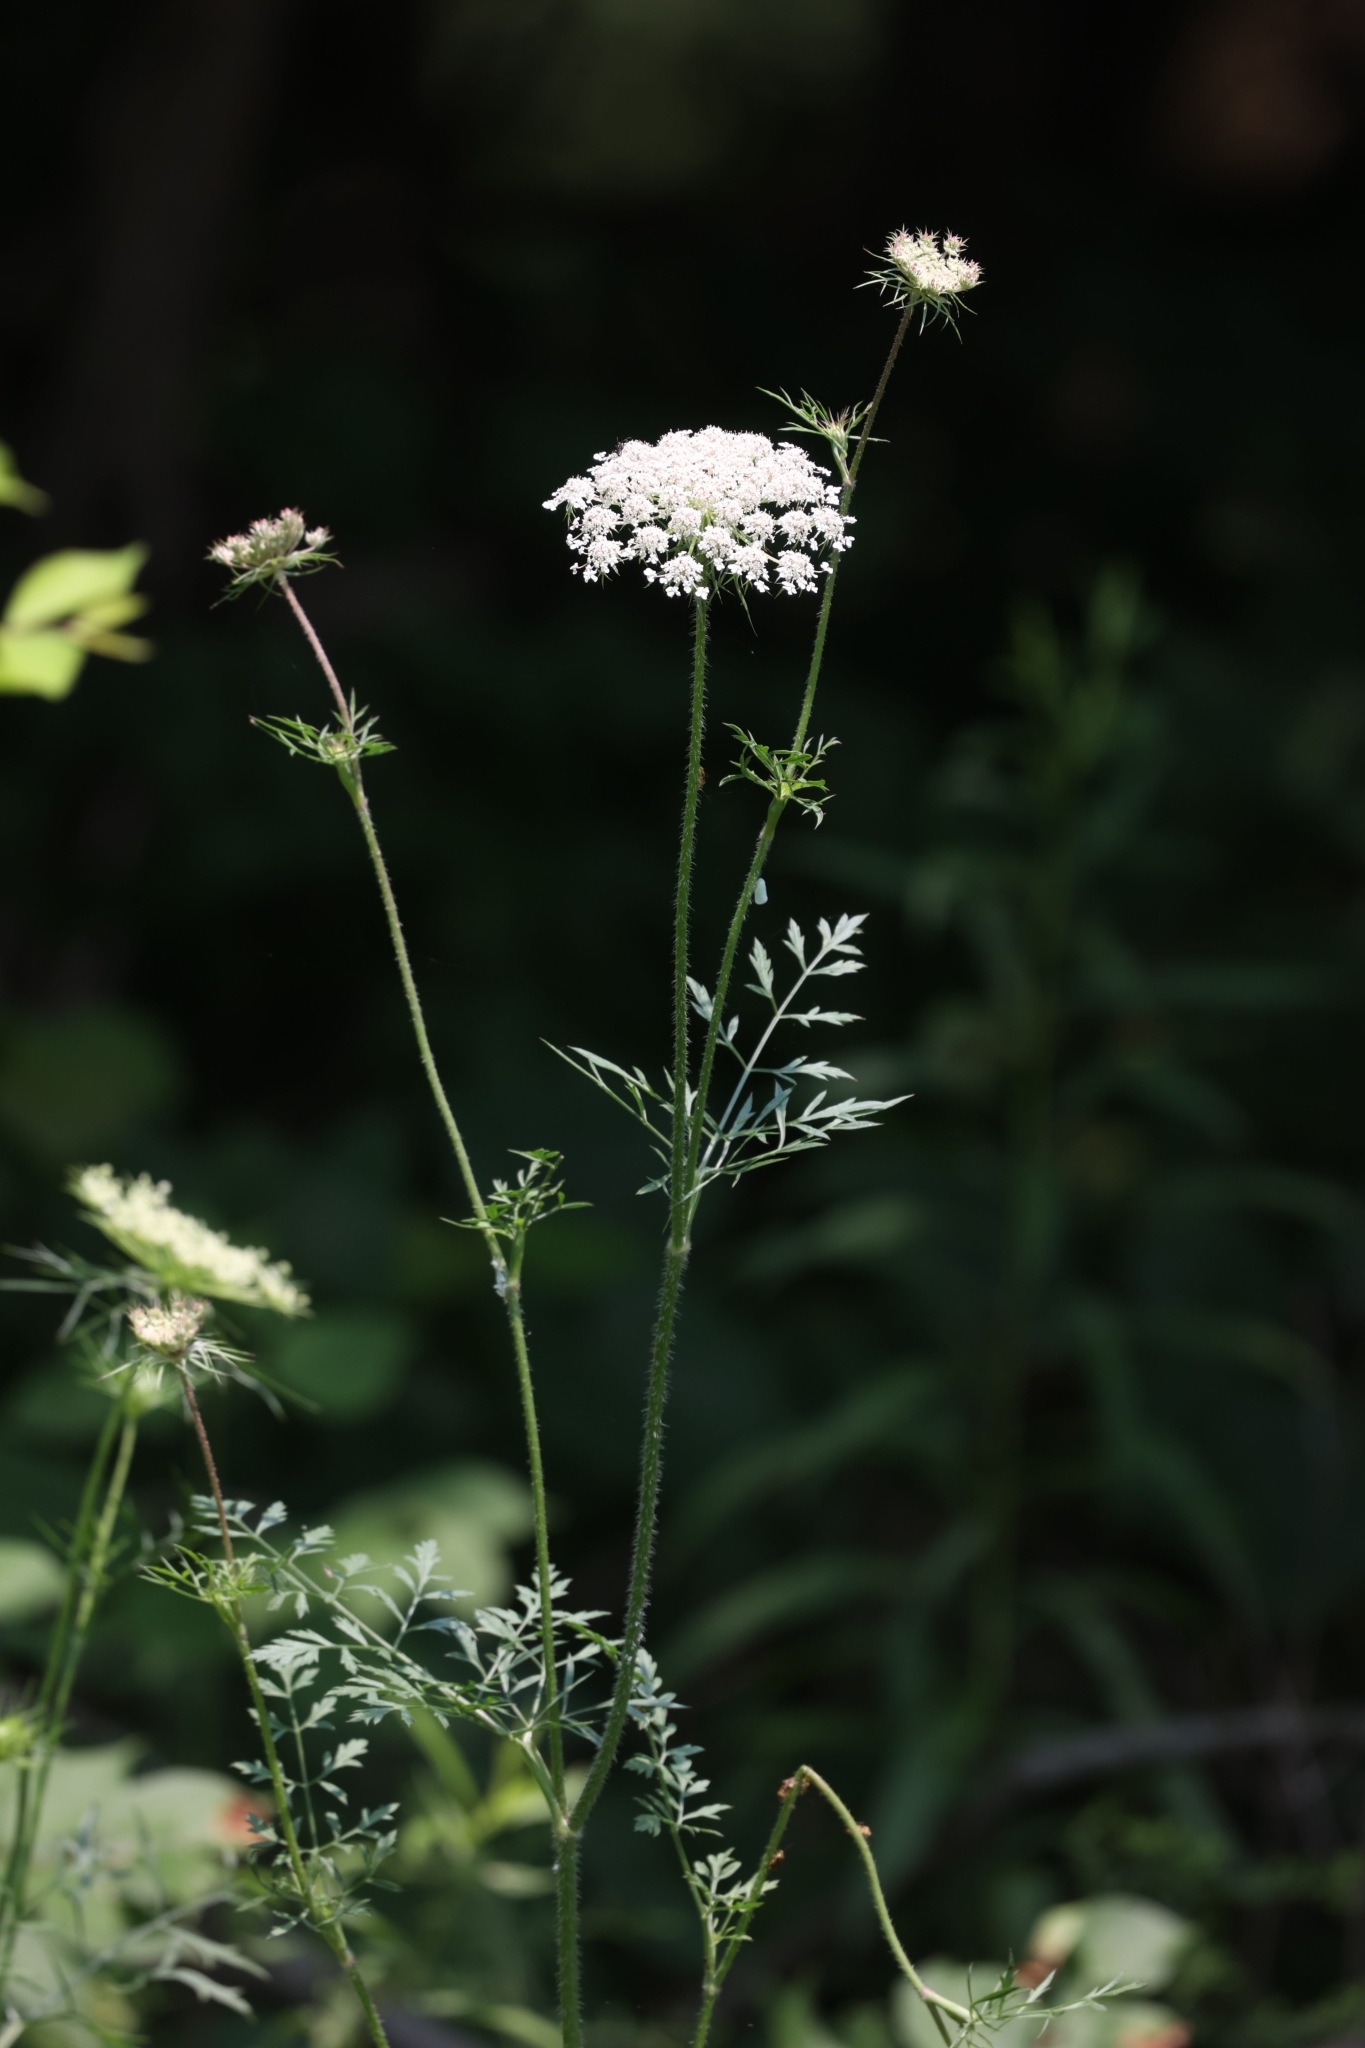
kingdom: Plantae
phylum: Tracheophyta
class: Magnoliopsida
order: Apiales
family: Apiaceae
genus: Daucus
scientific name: Daucus carota
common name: Wild carrot
